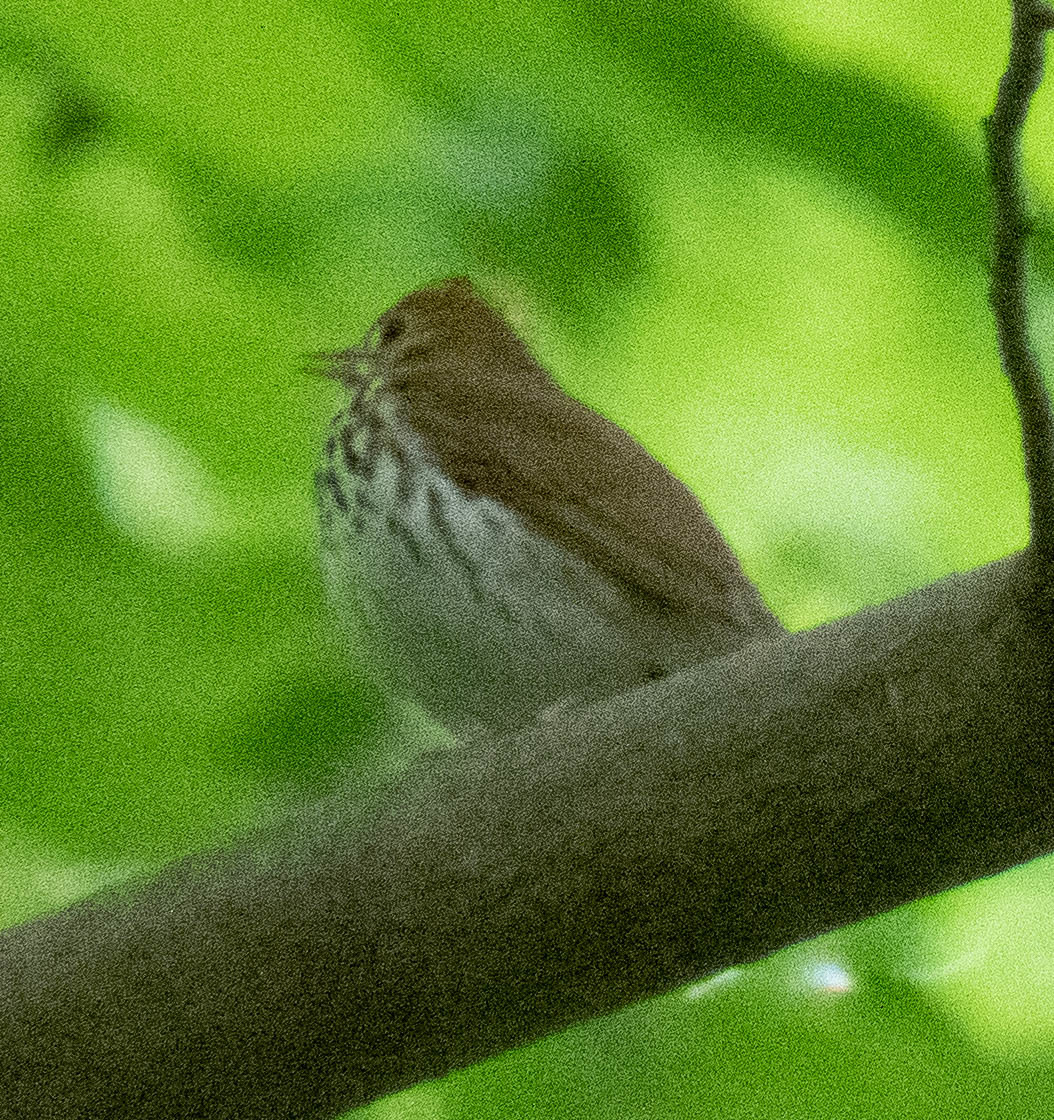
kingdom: Animalia
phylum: Chordata
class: Aves
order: Passeriformes
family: Parulidae
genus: Seiurus
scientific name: Seiurus aurocapilla
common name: Ovenbird
